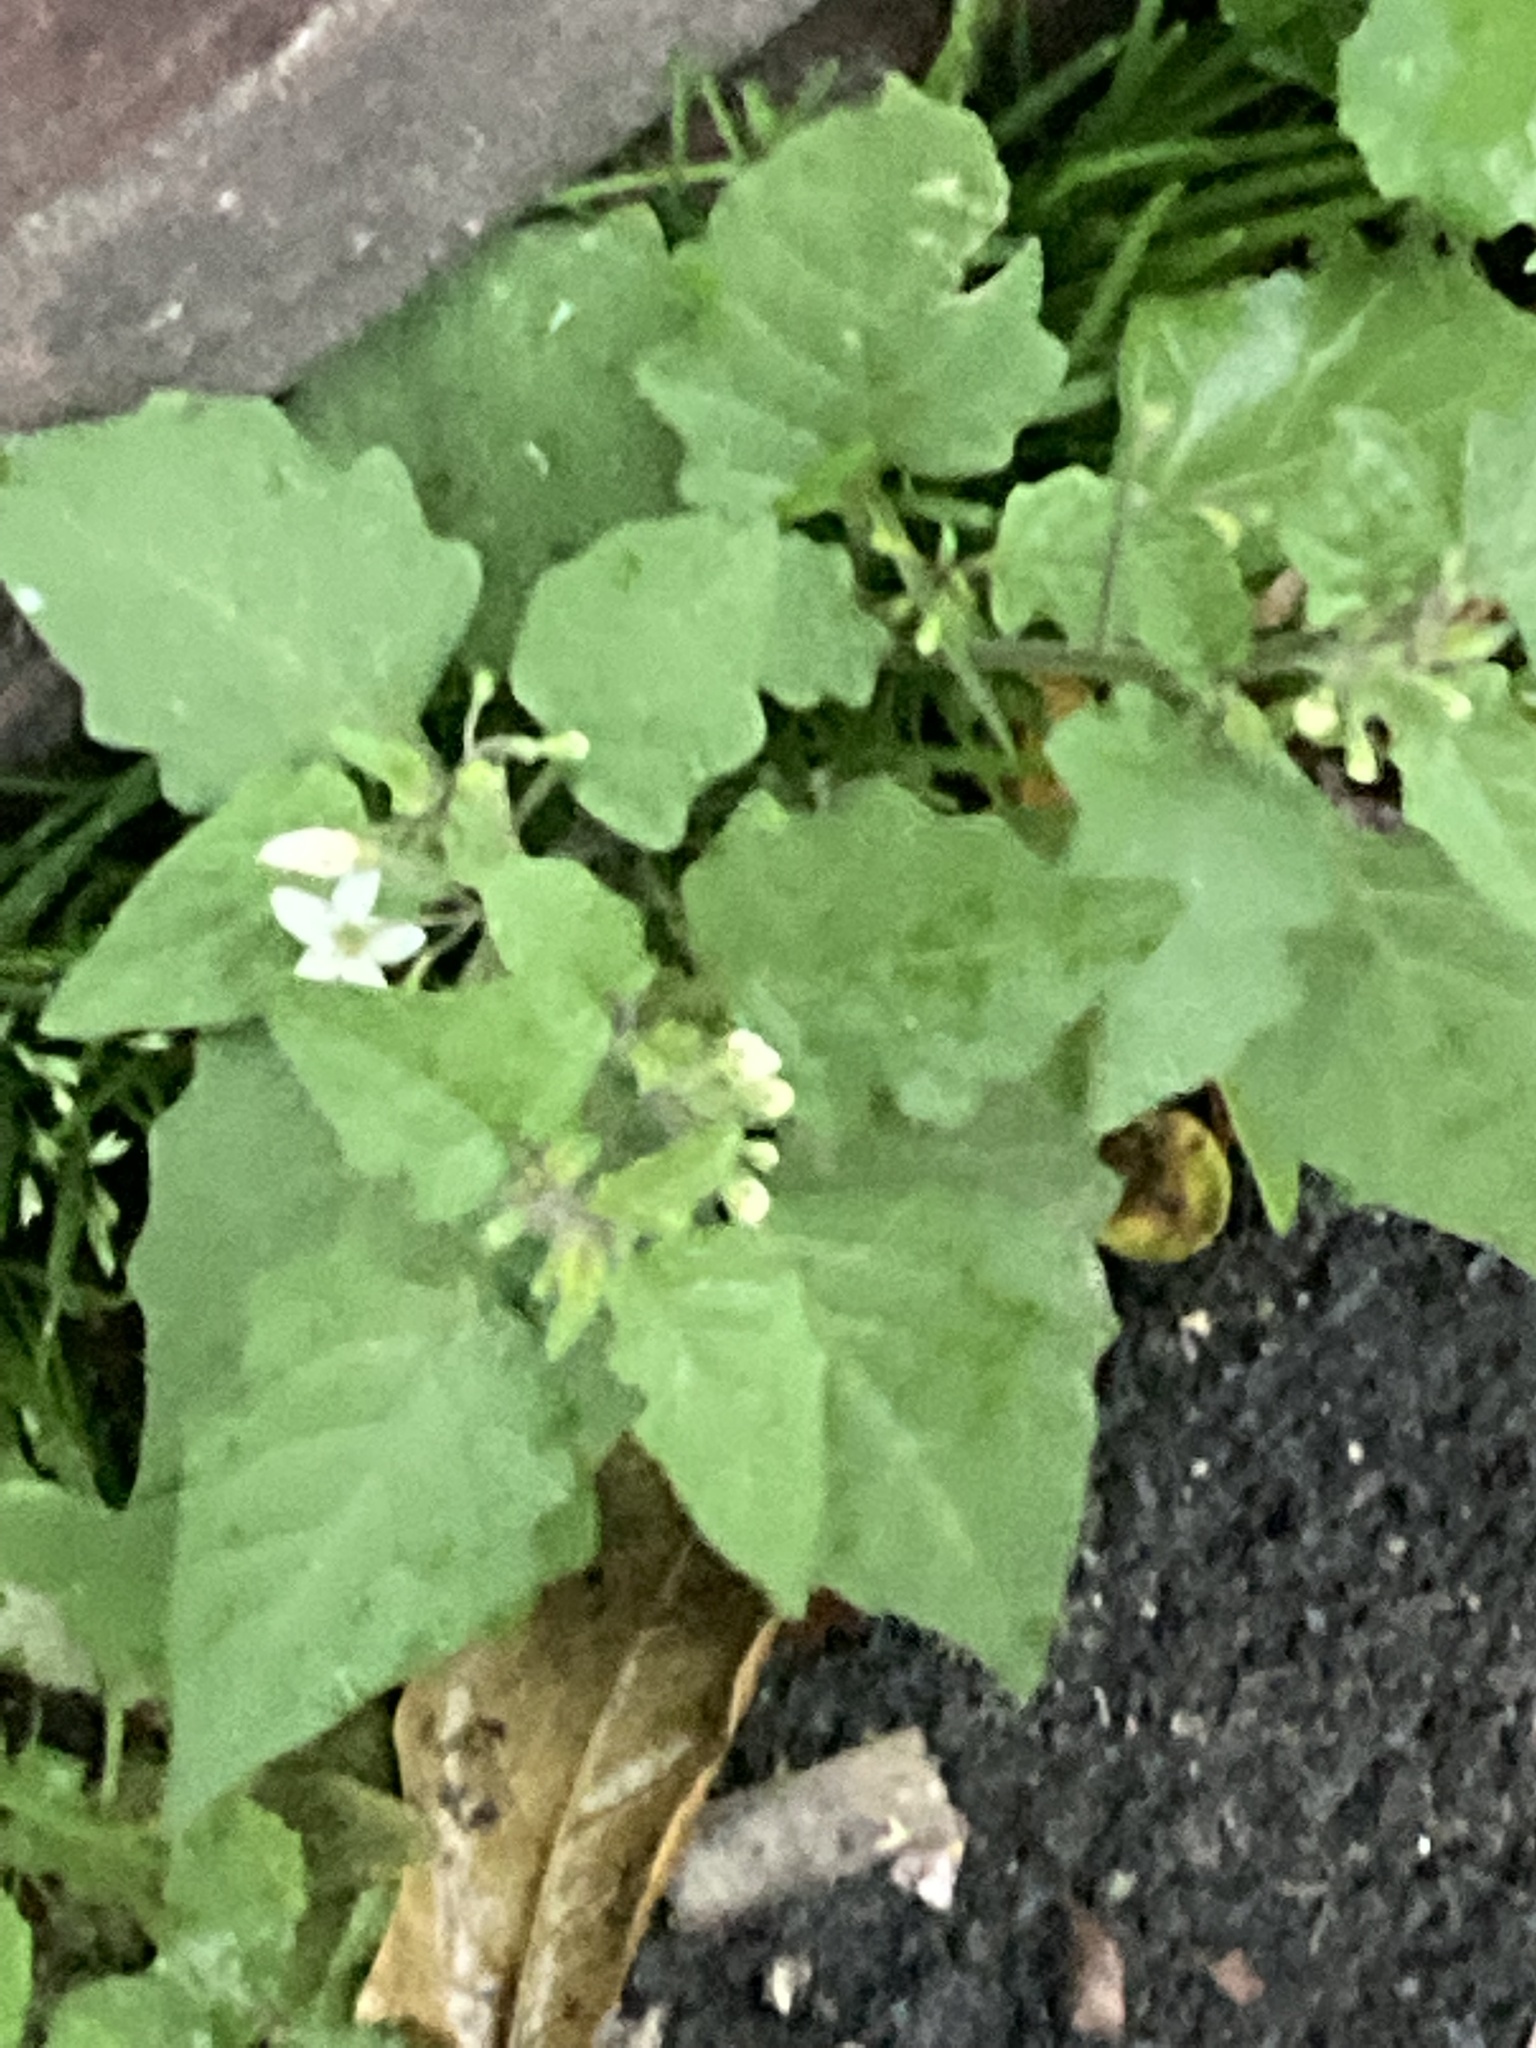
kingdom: Plantae
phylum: Tracheophyta
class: Magnoliopsida
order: Solanales
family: Solanaceae
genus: Solanum
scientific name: Solanum nigrum
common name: Black nightshade
